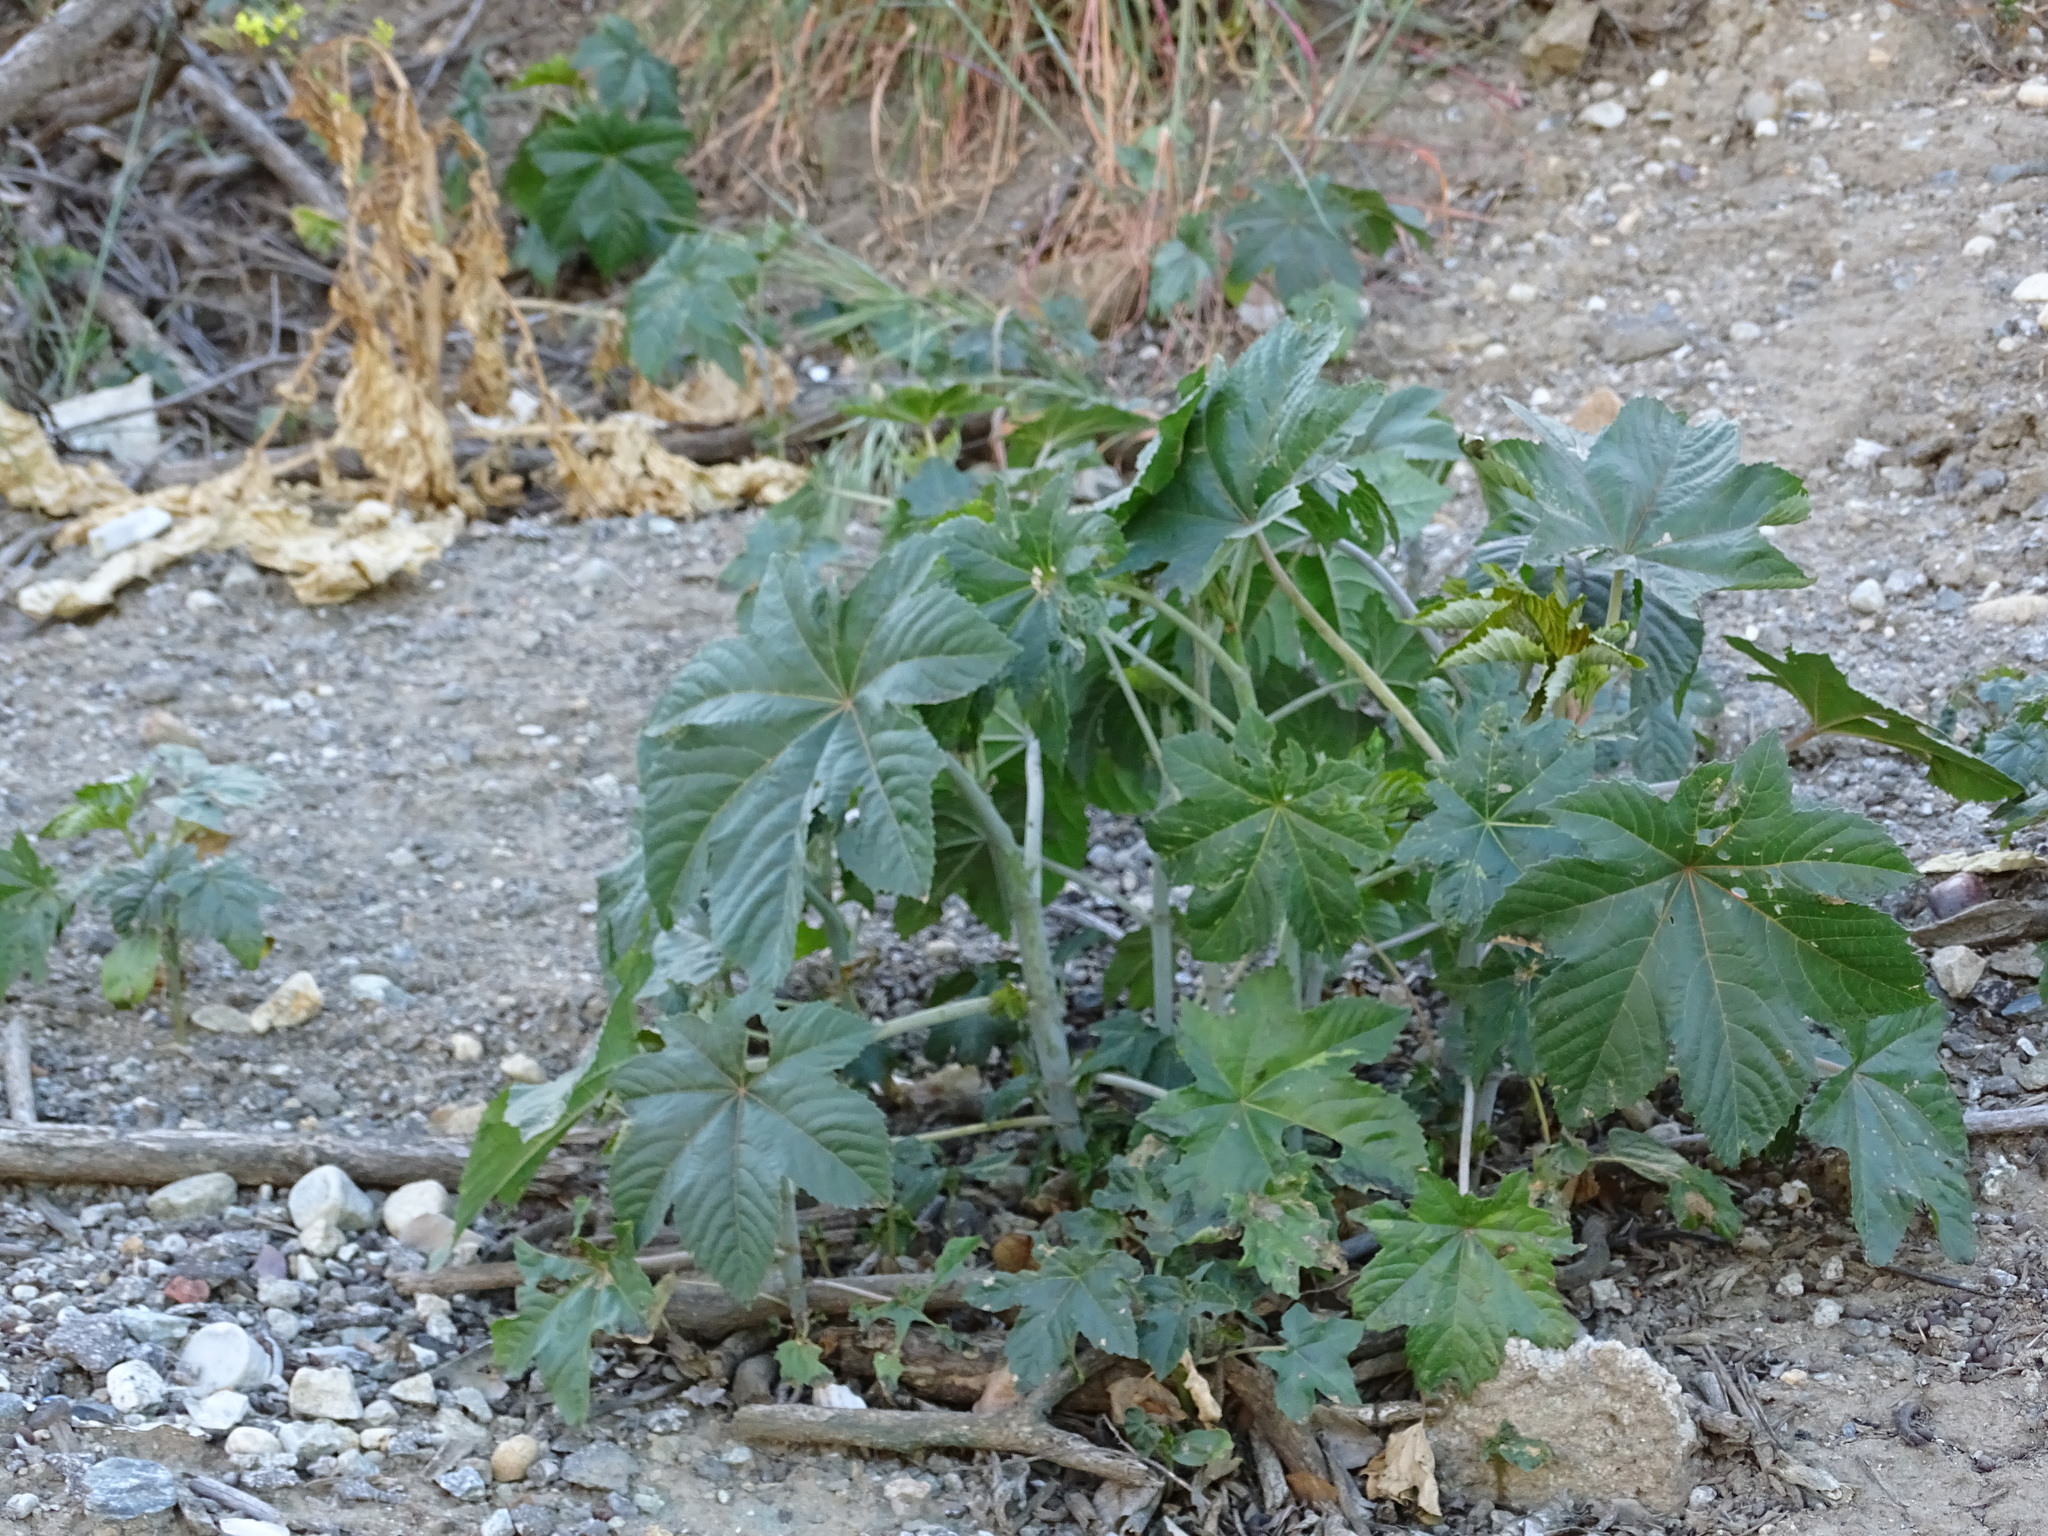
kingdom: Plantae
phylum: Tracheophyta
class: Magnoliopsida
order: Malpighiales
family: Euphorbiaceae
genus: Ricinus
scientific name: Ricinus communis
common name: Castor-oil-plant
